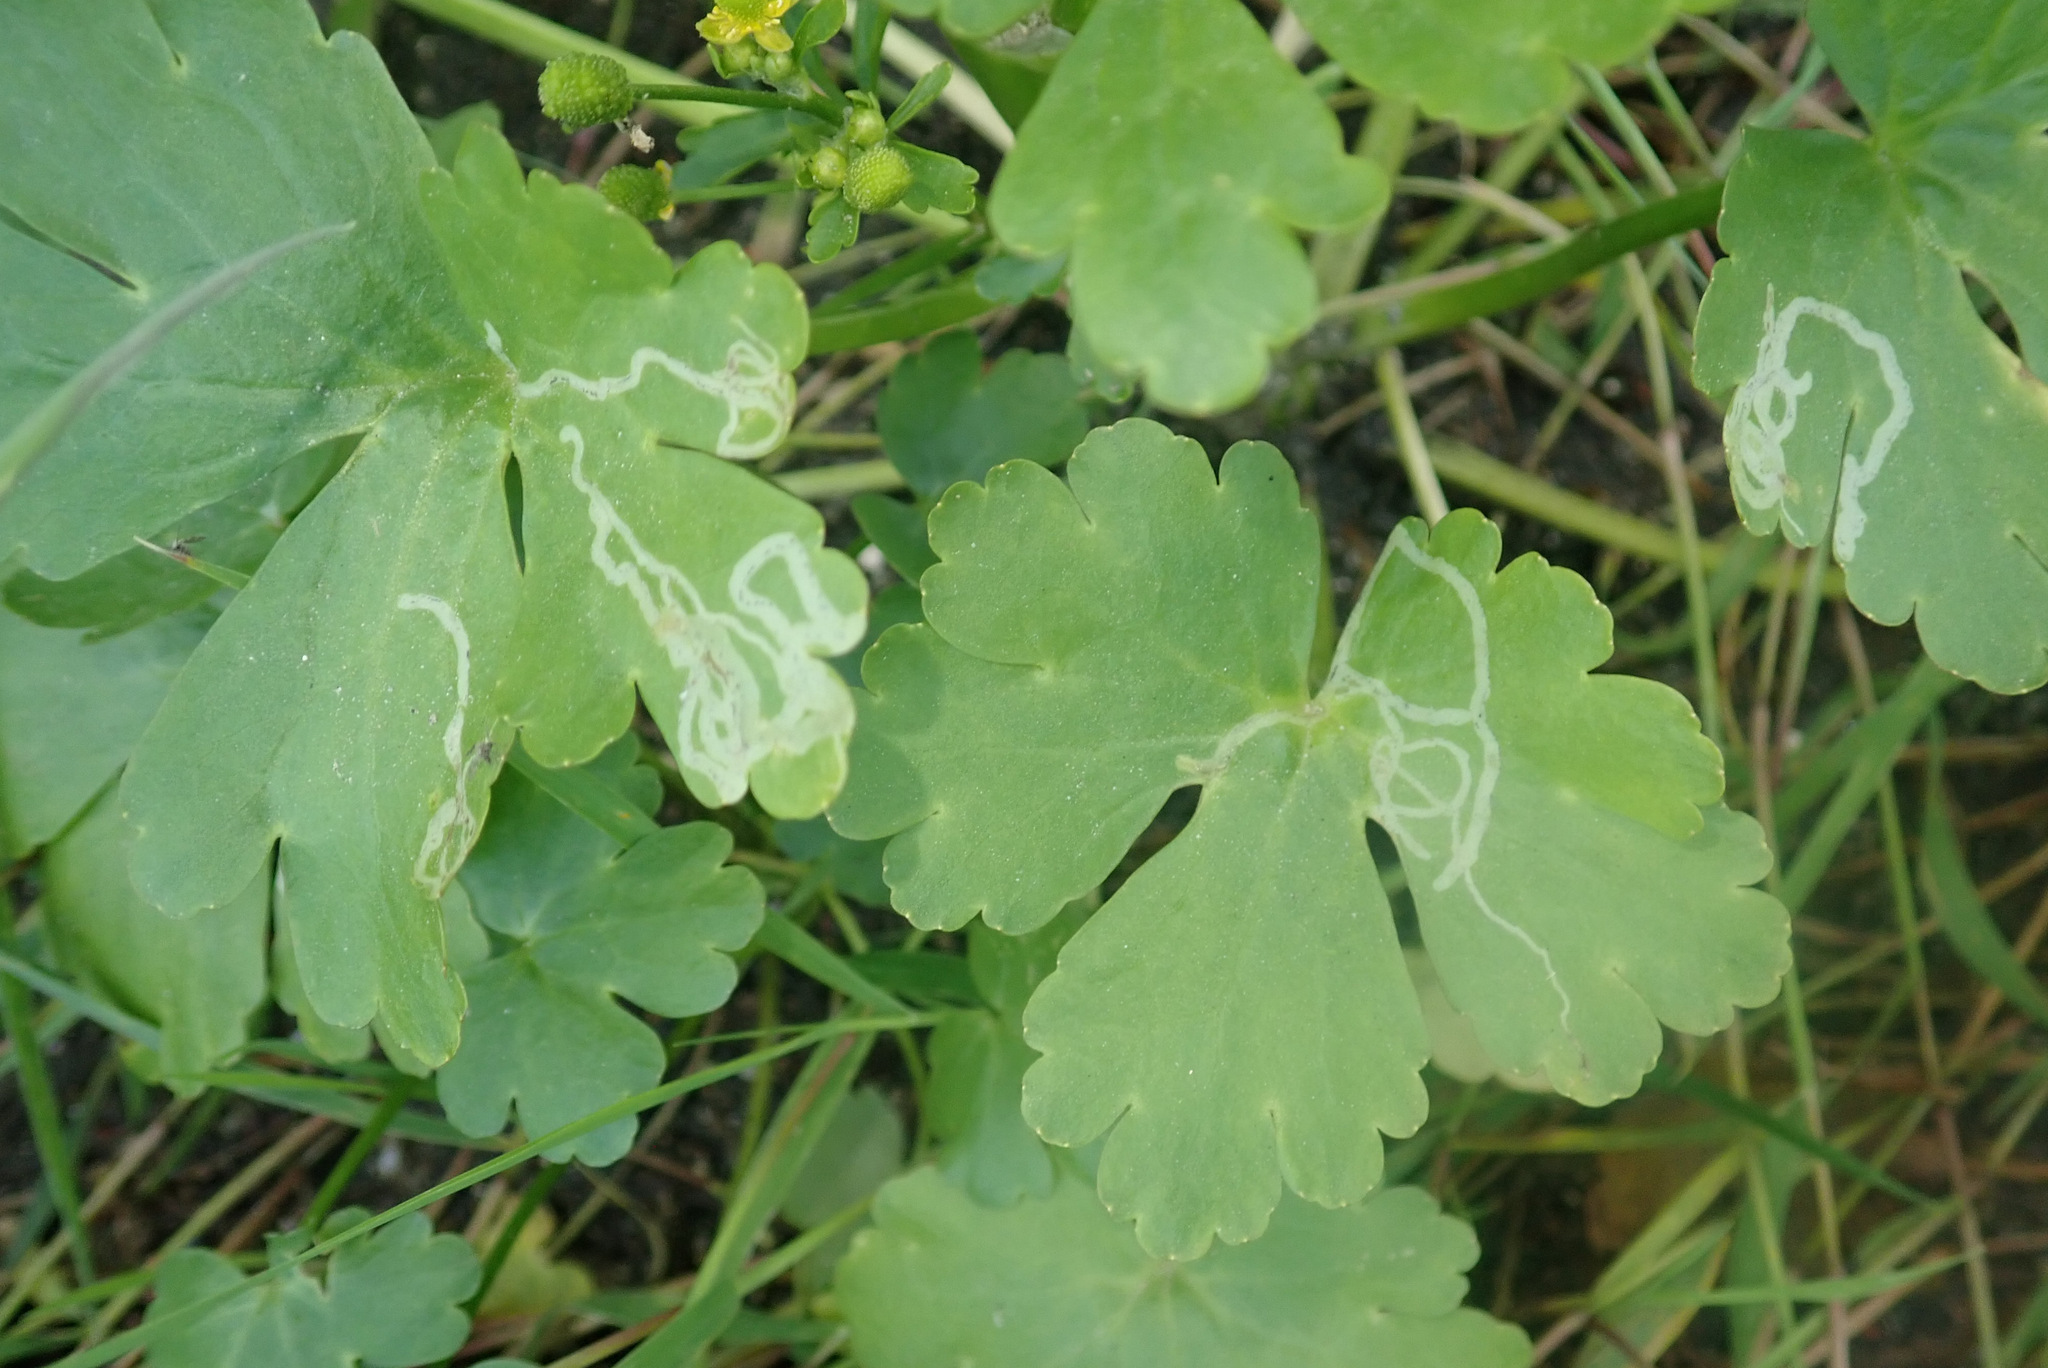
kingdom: Plantae
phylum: Tracheophyta
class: Magnoliopsida
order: Ranunculales
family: Ranunculaceae
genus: Ranunculus
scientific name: Ranunculus sceleratus
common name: Celery-leaved buttercup
